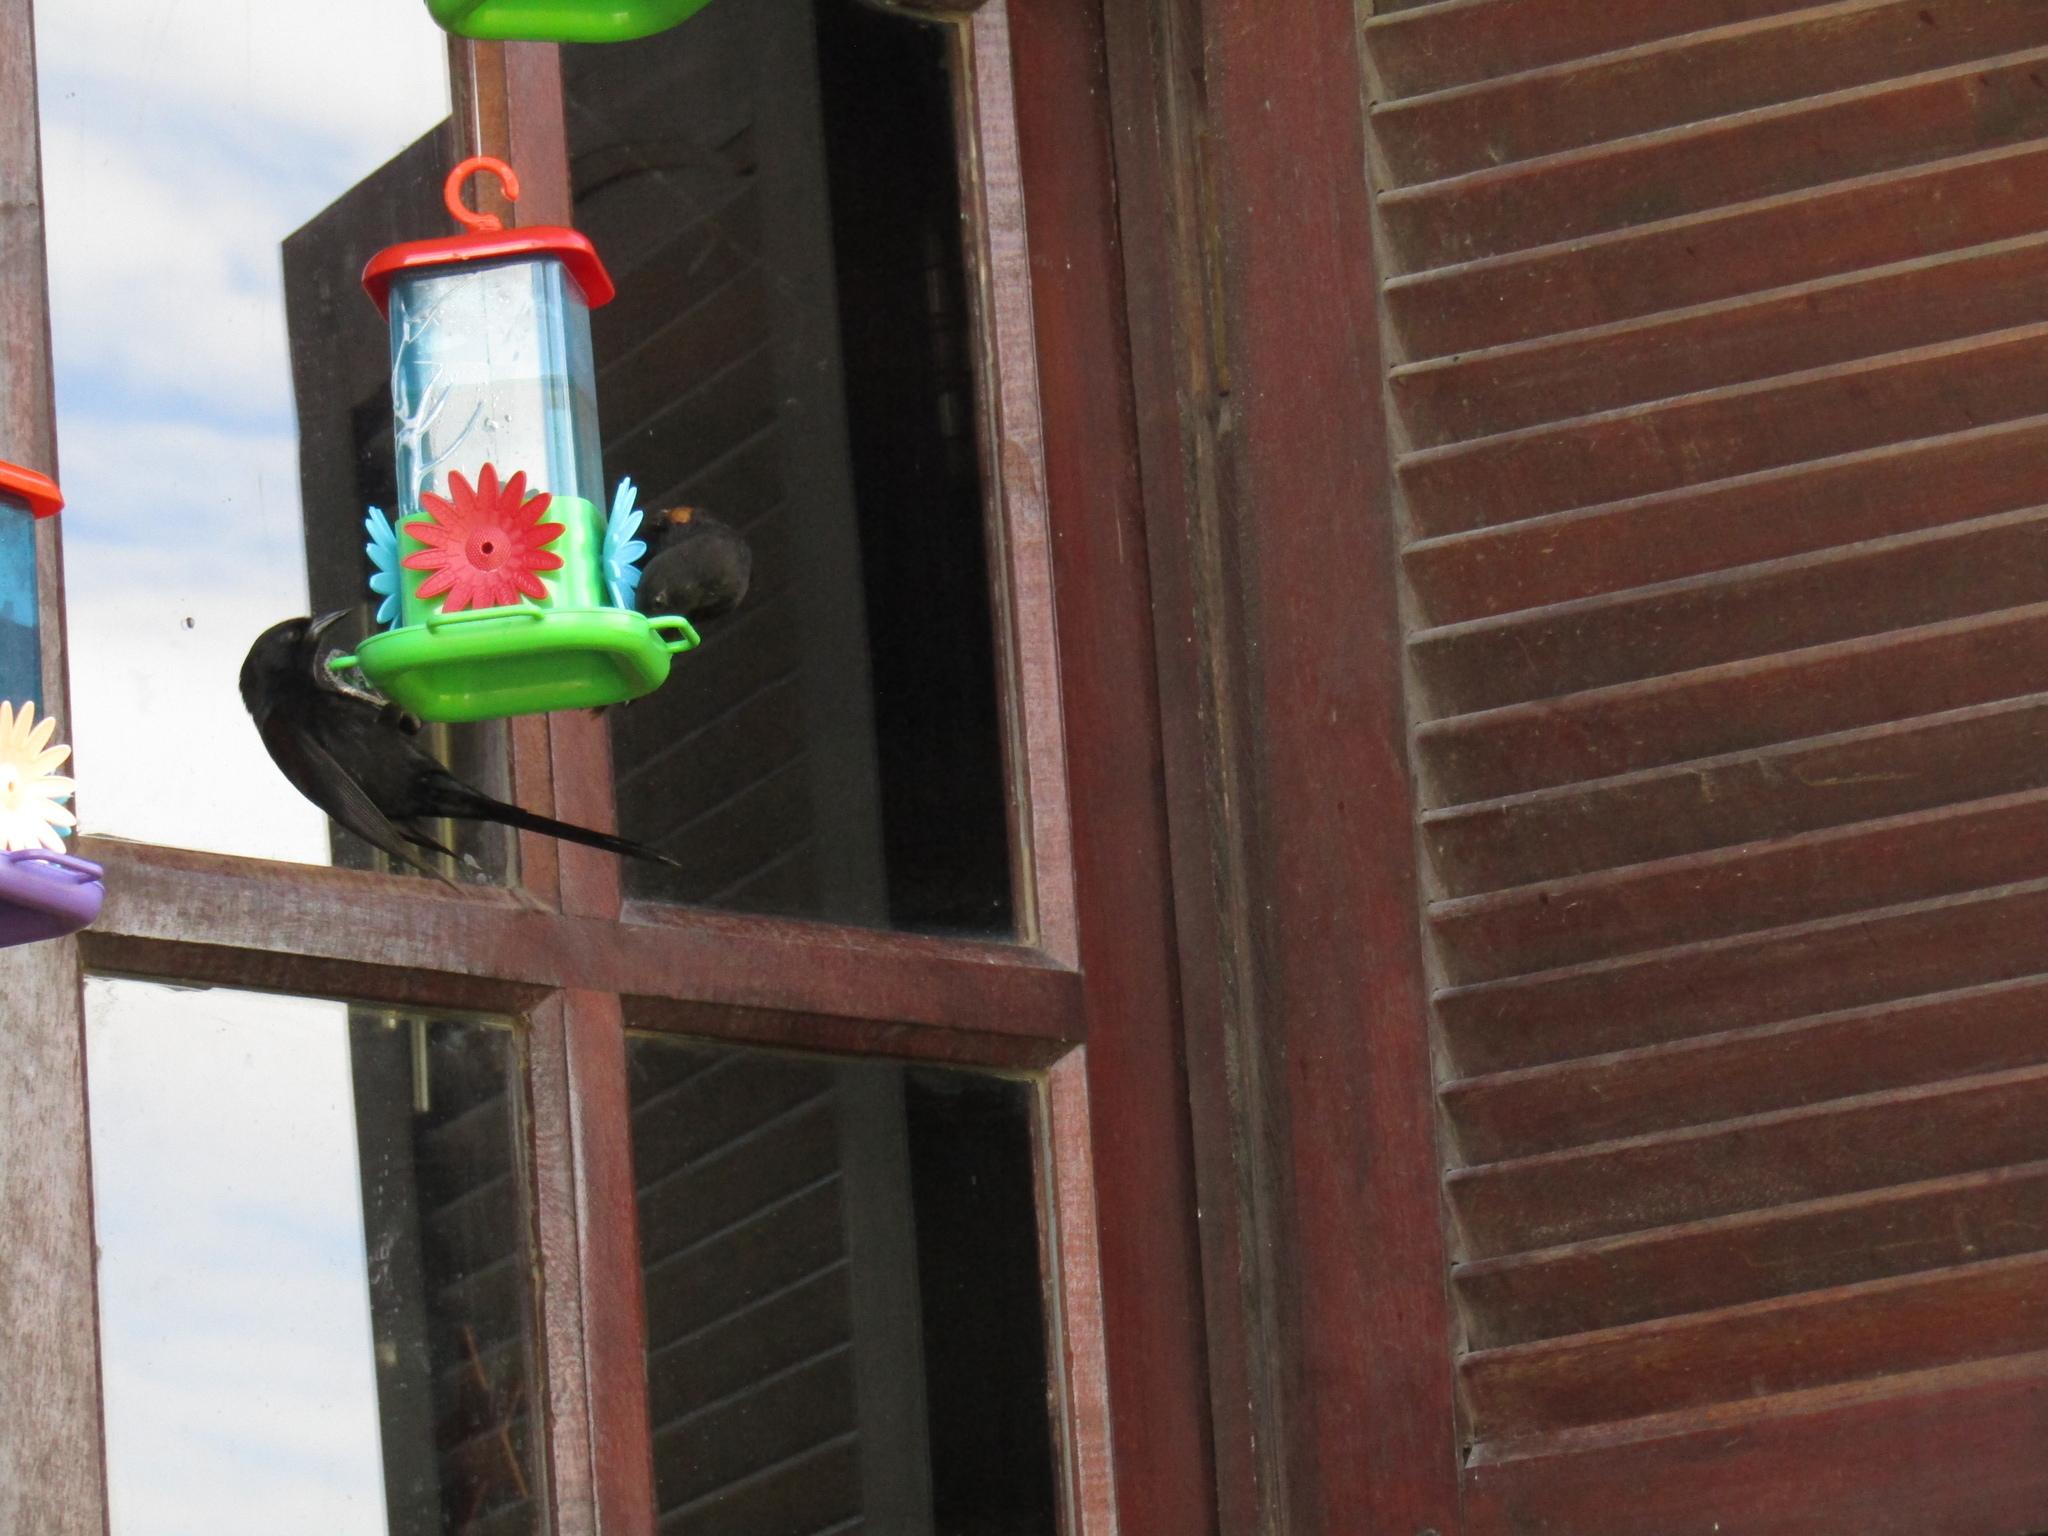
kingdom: Animalia
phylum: Chordata
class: Aves
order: Passeriformes
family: Icteridae
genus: Icterus
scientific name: Icterus cayanensis
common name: Epaulet oriole
